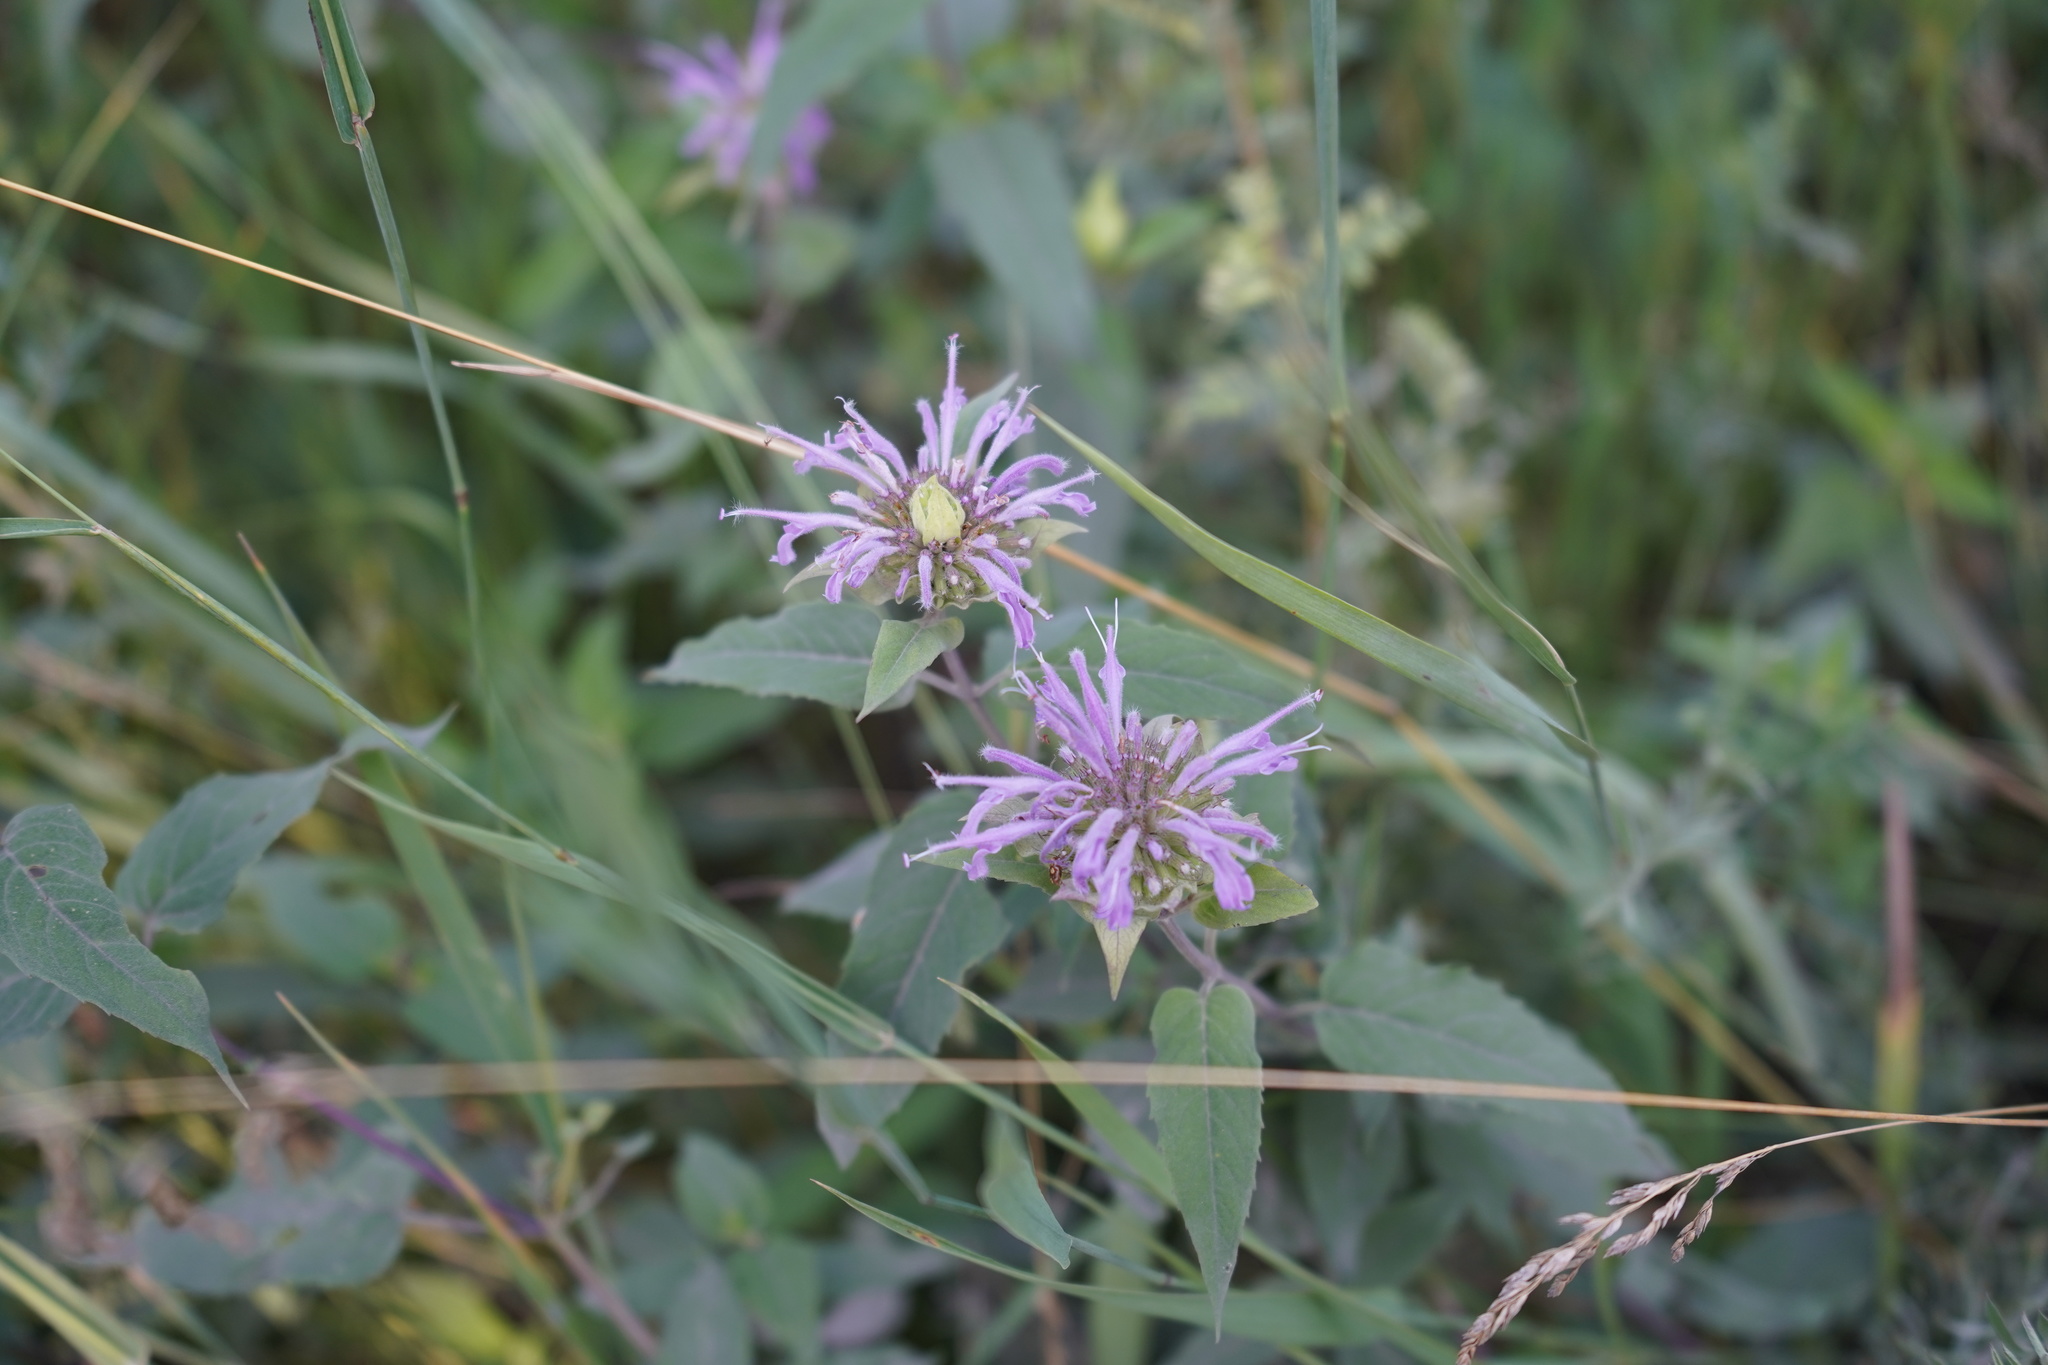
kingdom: Plantae
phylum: Tracheophyta
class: Magnoliopsida
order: Lamiales
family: Lamiaceae
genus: Monarda
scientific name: Monarda fistulosa
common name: Purple beebalm
